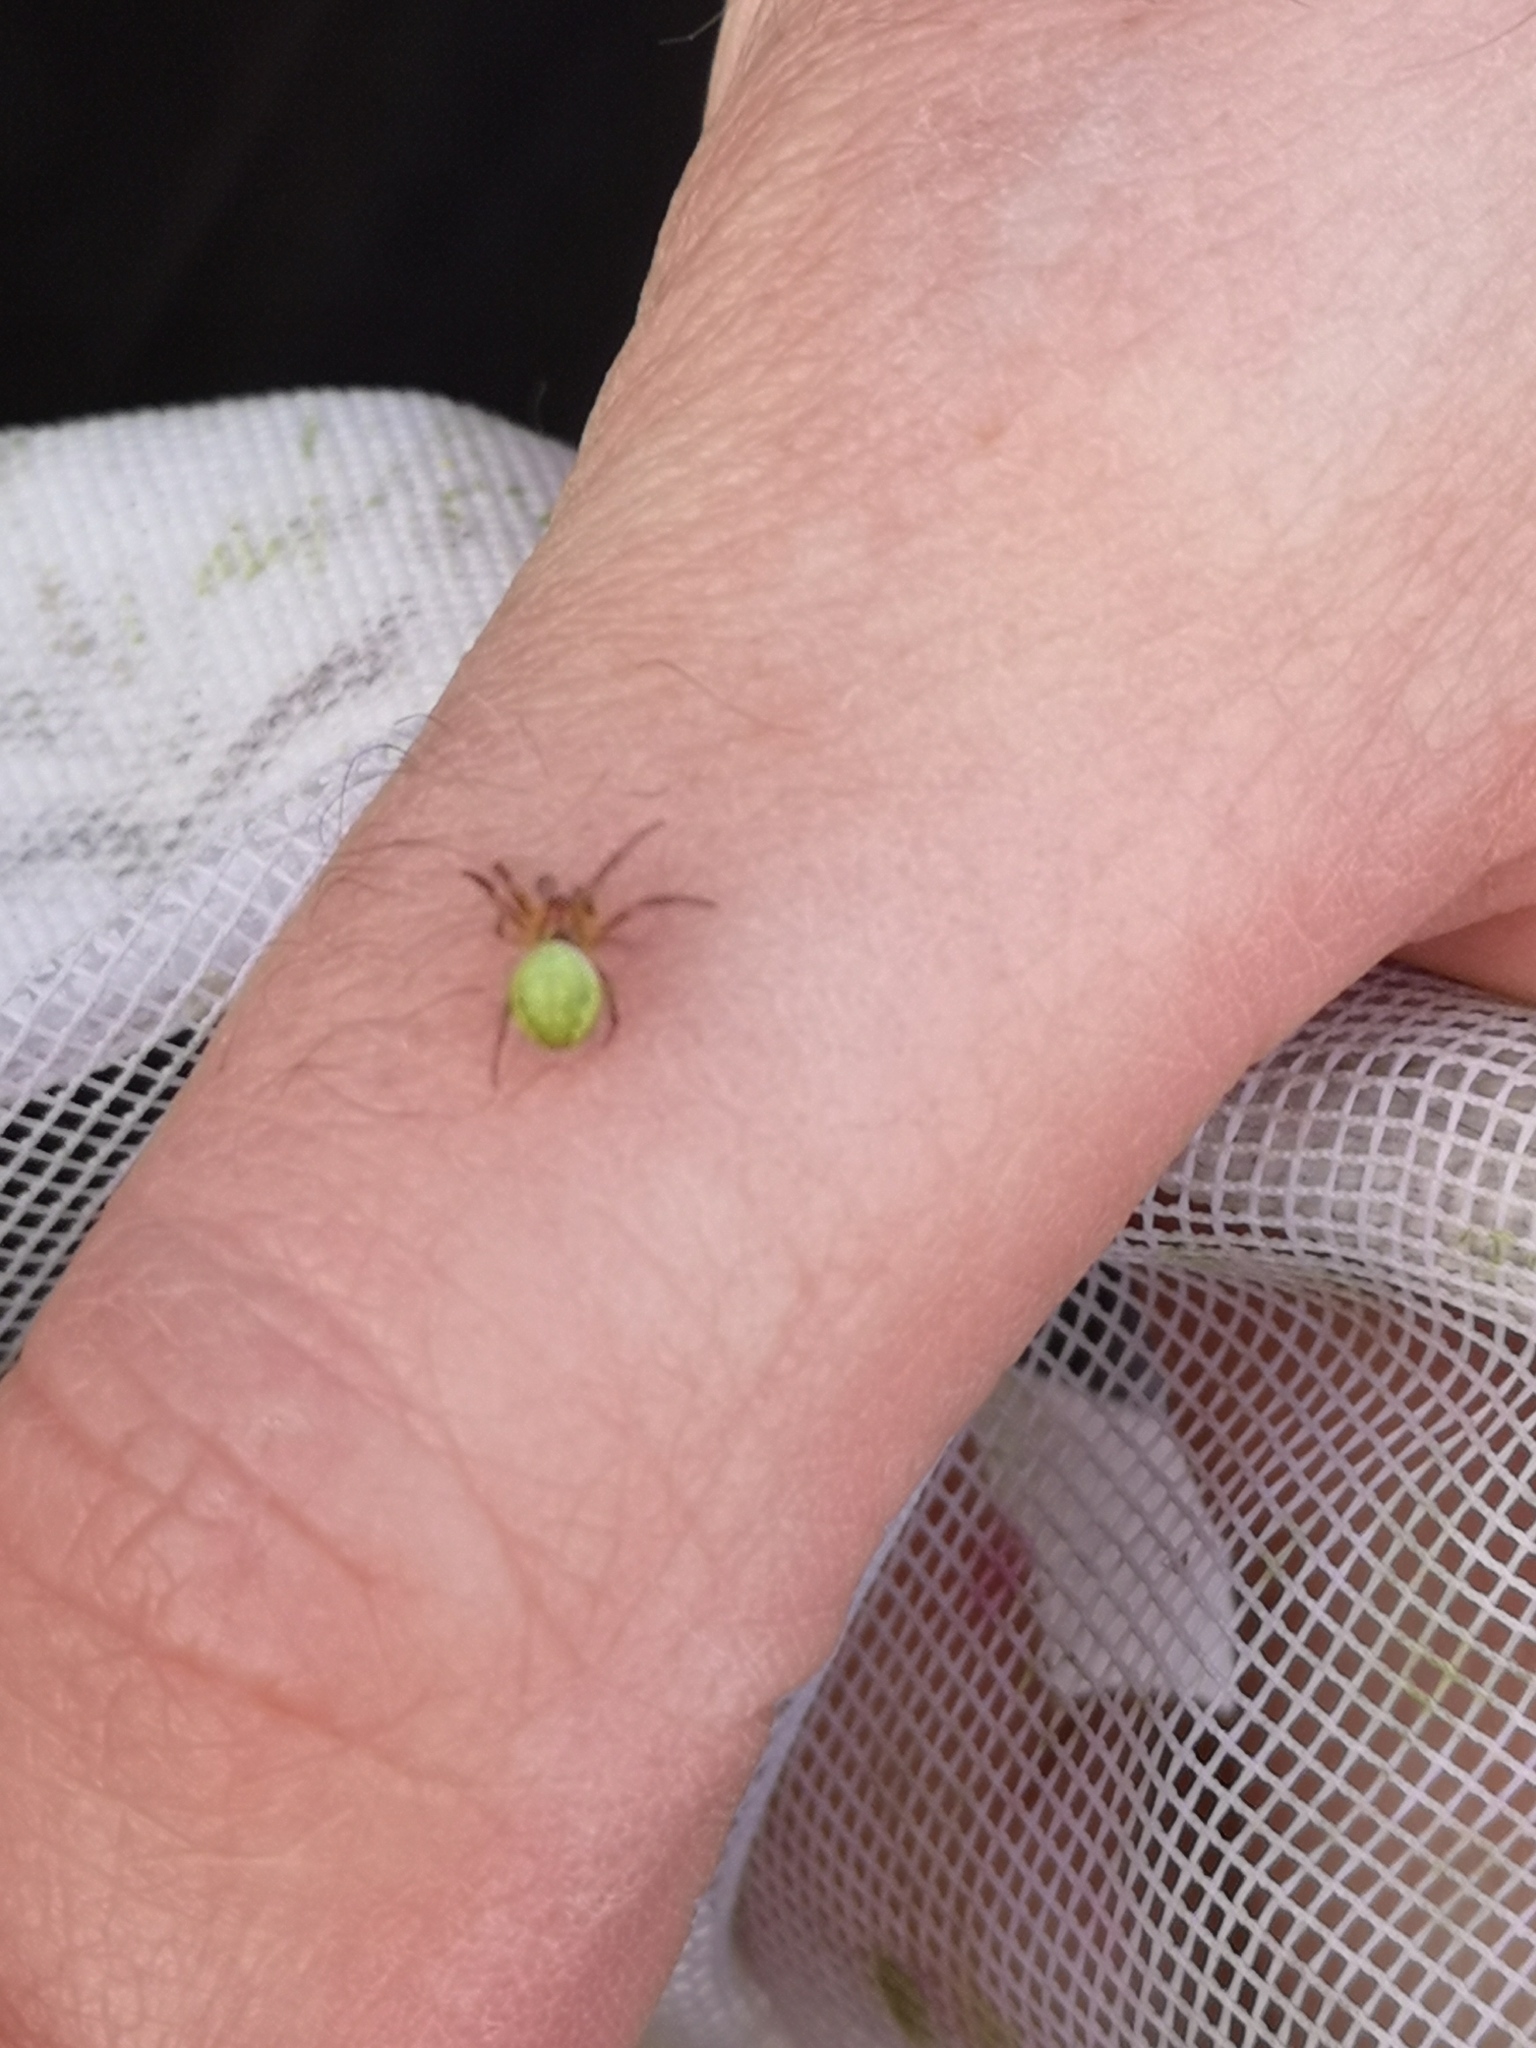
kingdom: Animalia
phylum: Arthropoda
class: Arachnida
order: Araneae
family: Araneidae
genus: Araniella
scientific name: Araniella
